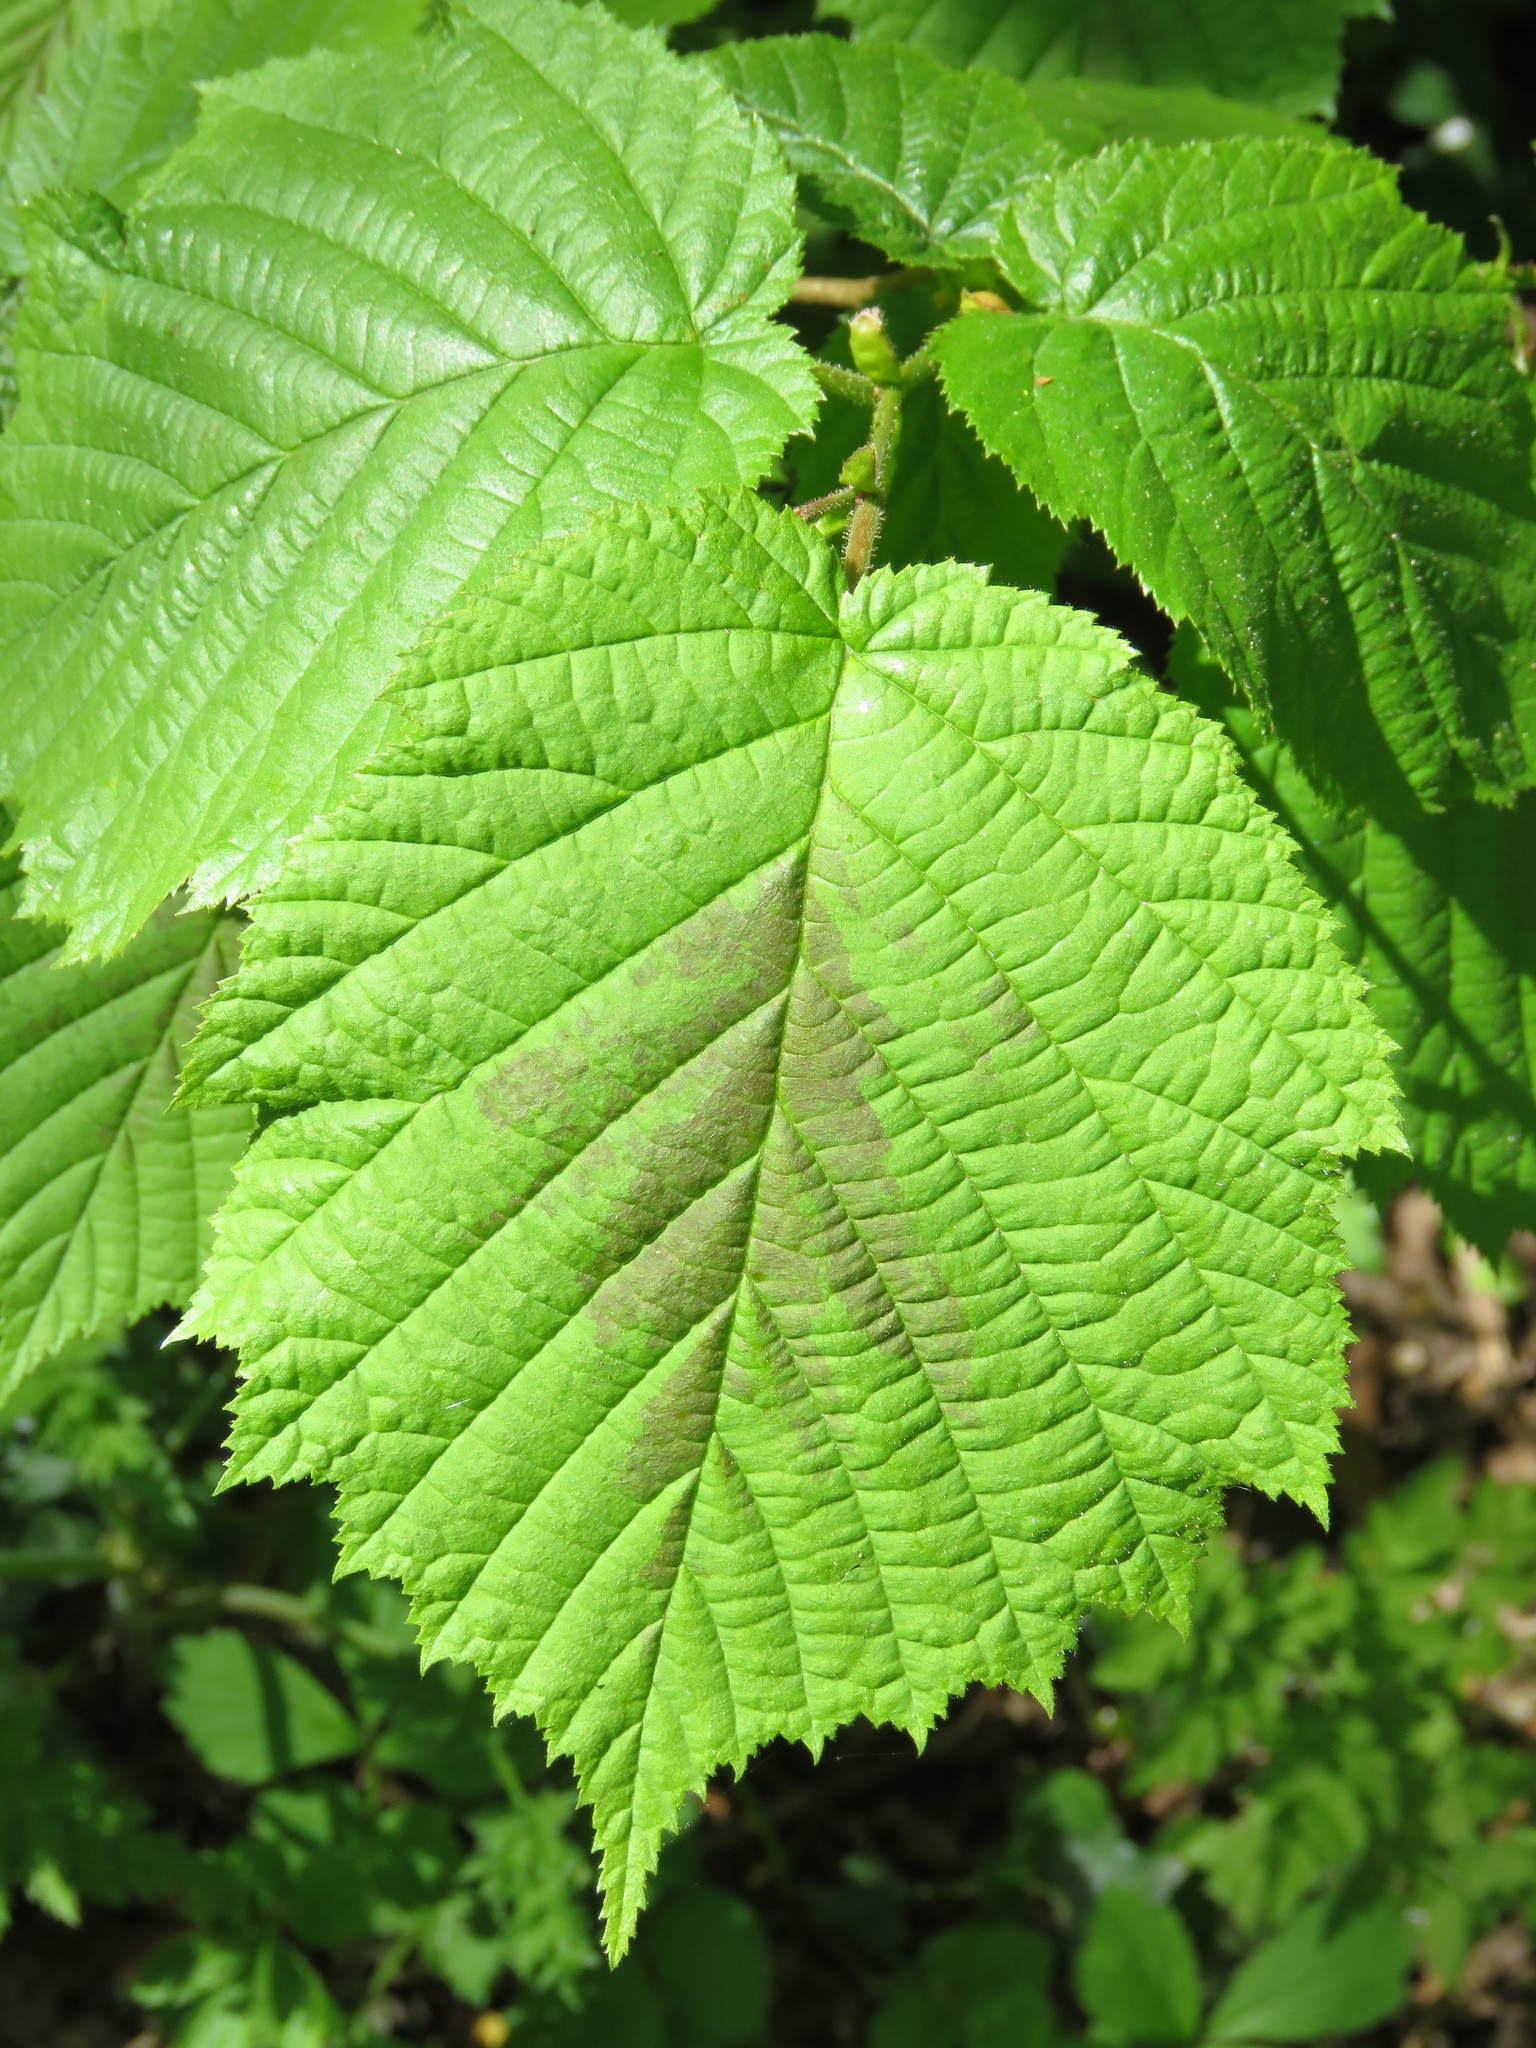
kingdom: Plantae
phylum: Tracheophyta
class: Magnoliopsida
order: Fagales
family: Betulaceae
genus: Corylus
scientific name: Corylus avellana
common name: European hazel
